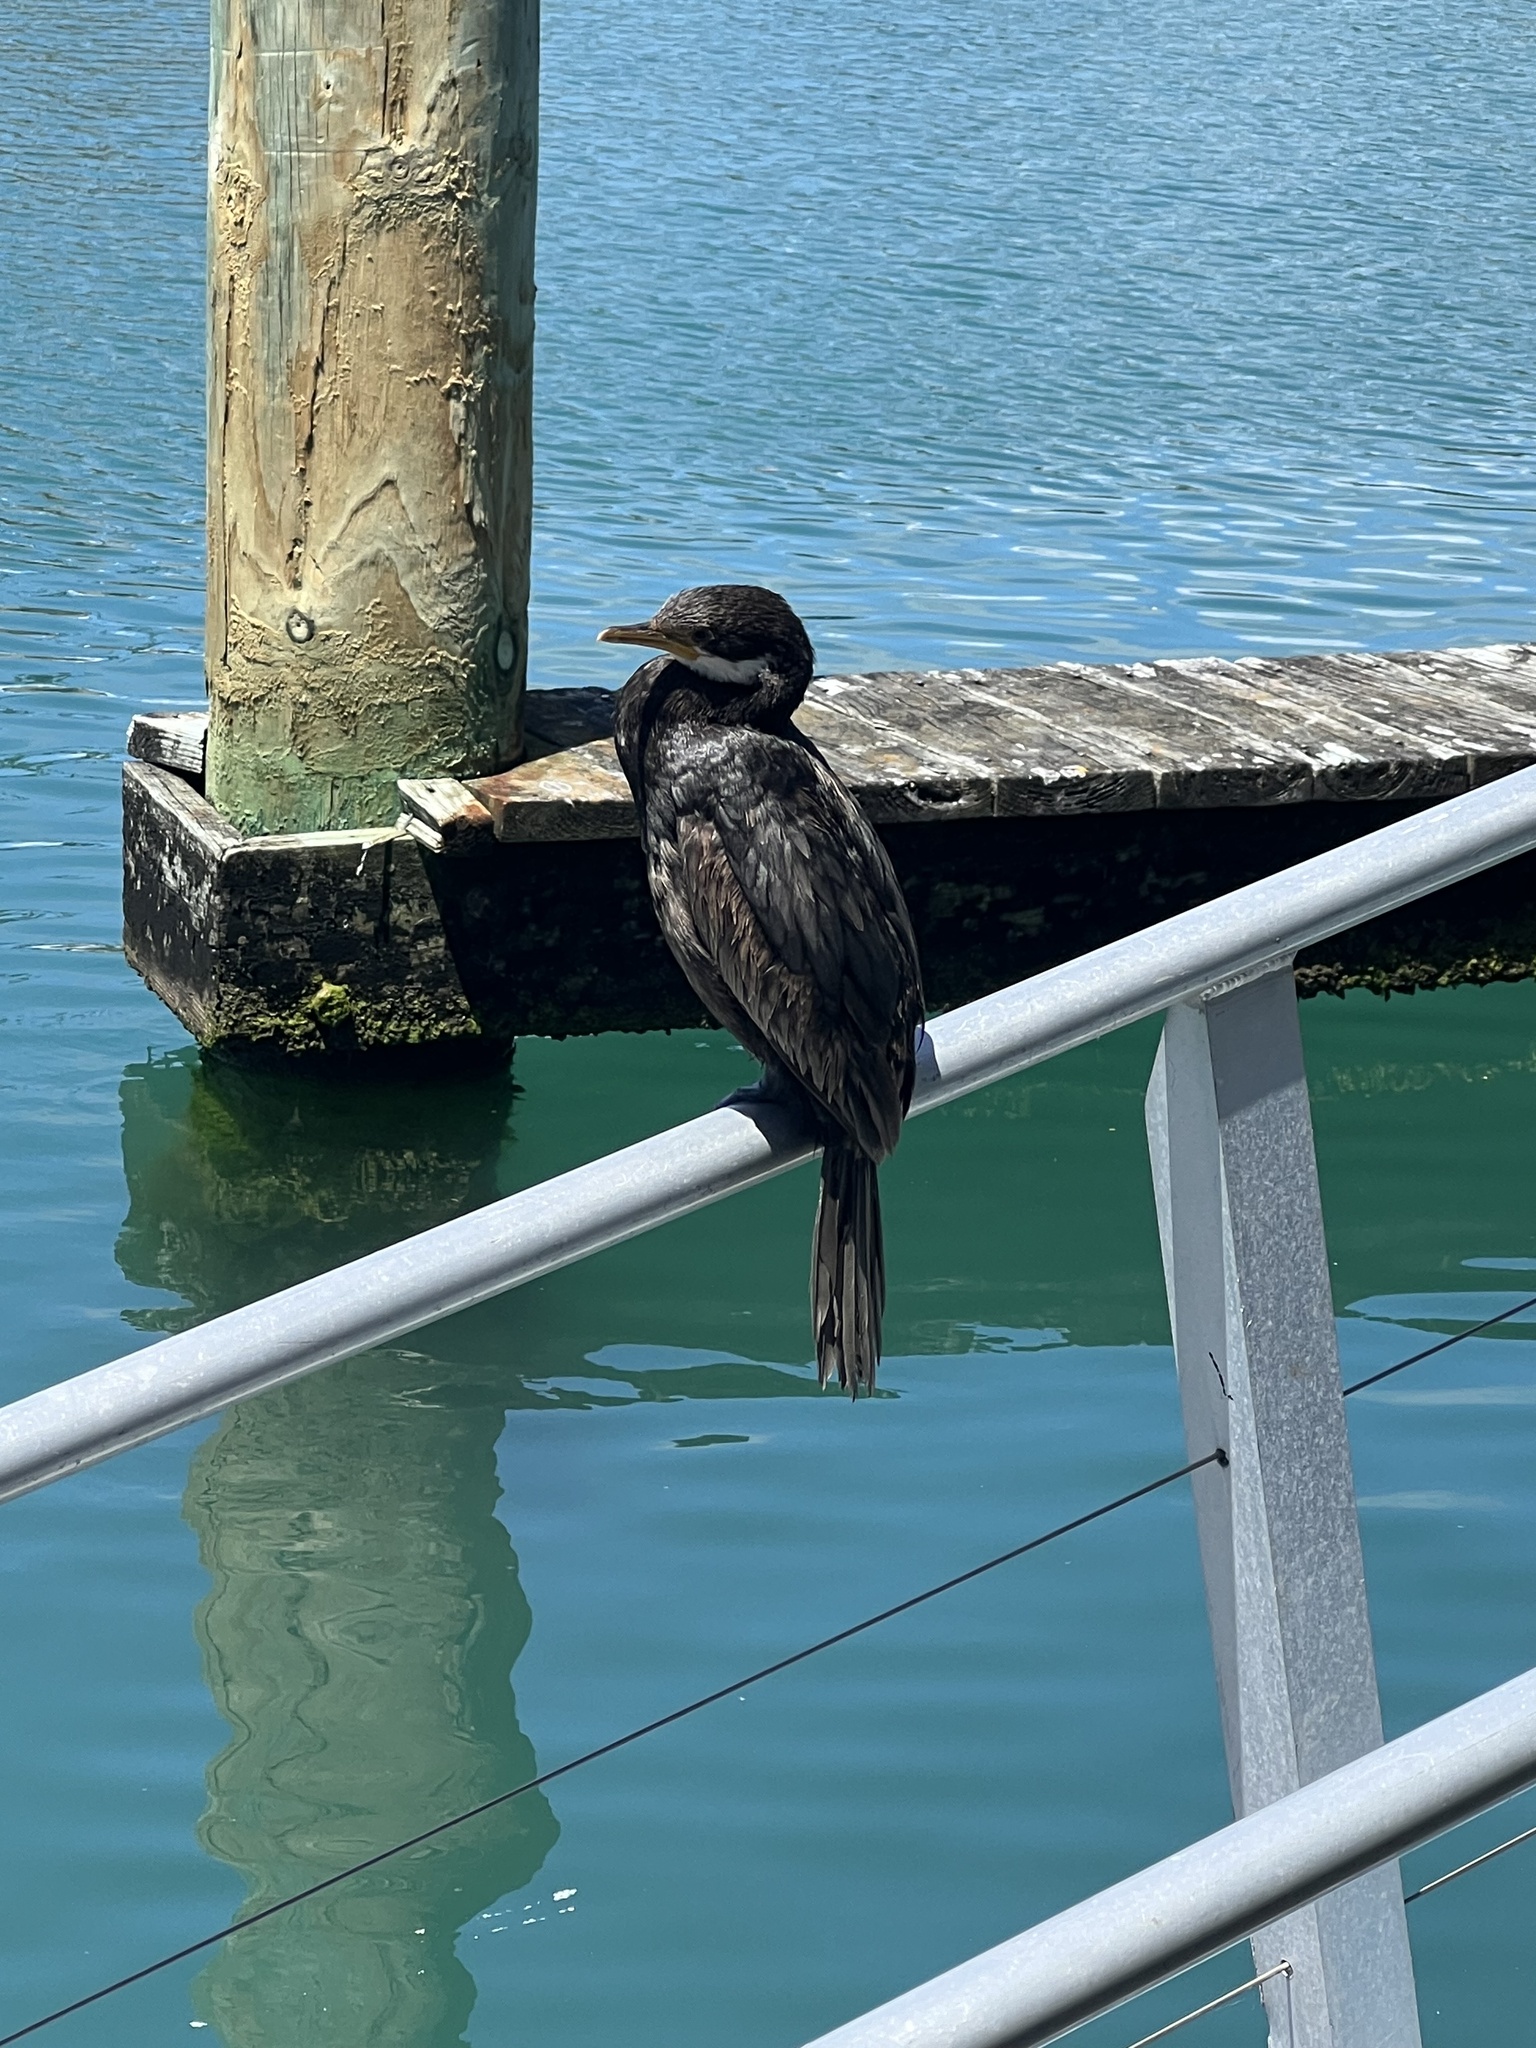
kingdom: Animalia
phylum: Chordata
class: Aves
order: Suliformes
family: Phalacrocoracidae
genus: Microcarbo
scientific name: Microcarbo melanoleucos
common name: Little pied cormorant
